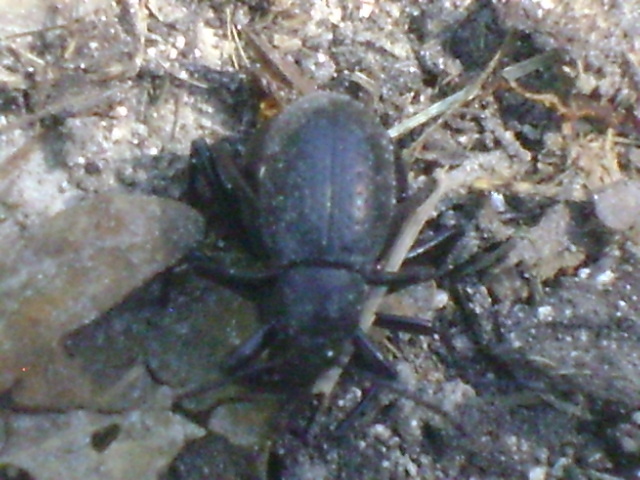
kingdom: Animalia
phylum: Arthropoda
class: Insecta
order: Coleoptera
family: Tenebrionidae
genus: Eleodes
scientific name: Eleodes goryi
